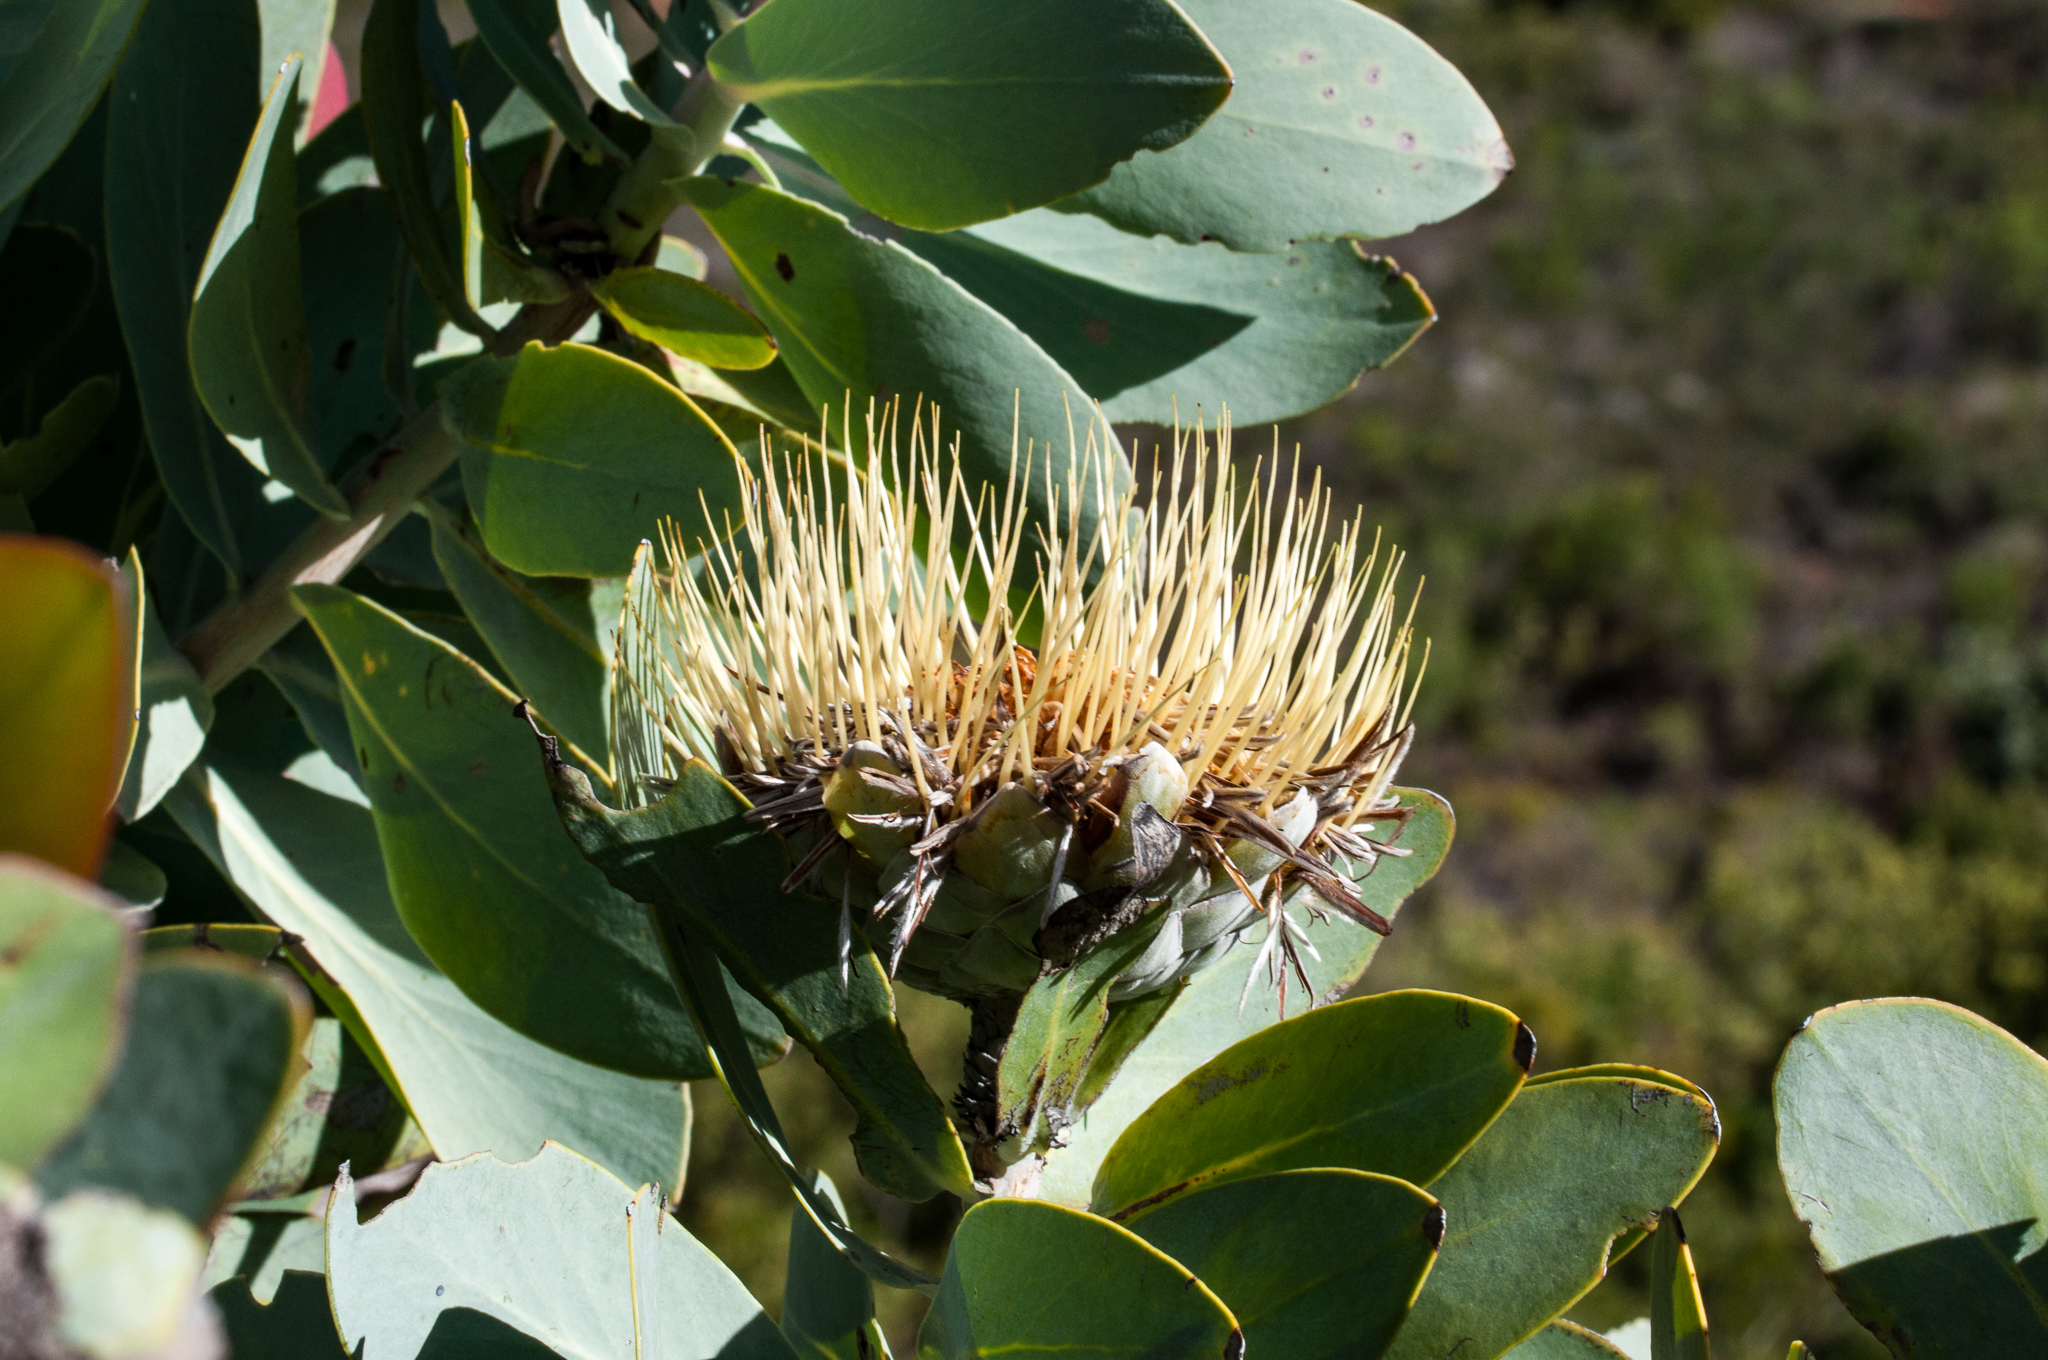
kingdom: Plantae
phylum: Tracheophyta
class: Magnoliopsida
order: Proteales
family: Proteaceae
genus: Protea
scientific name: Protea nitida
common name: Tree protea
